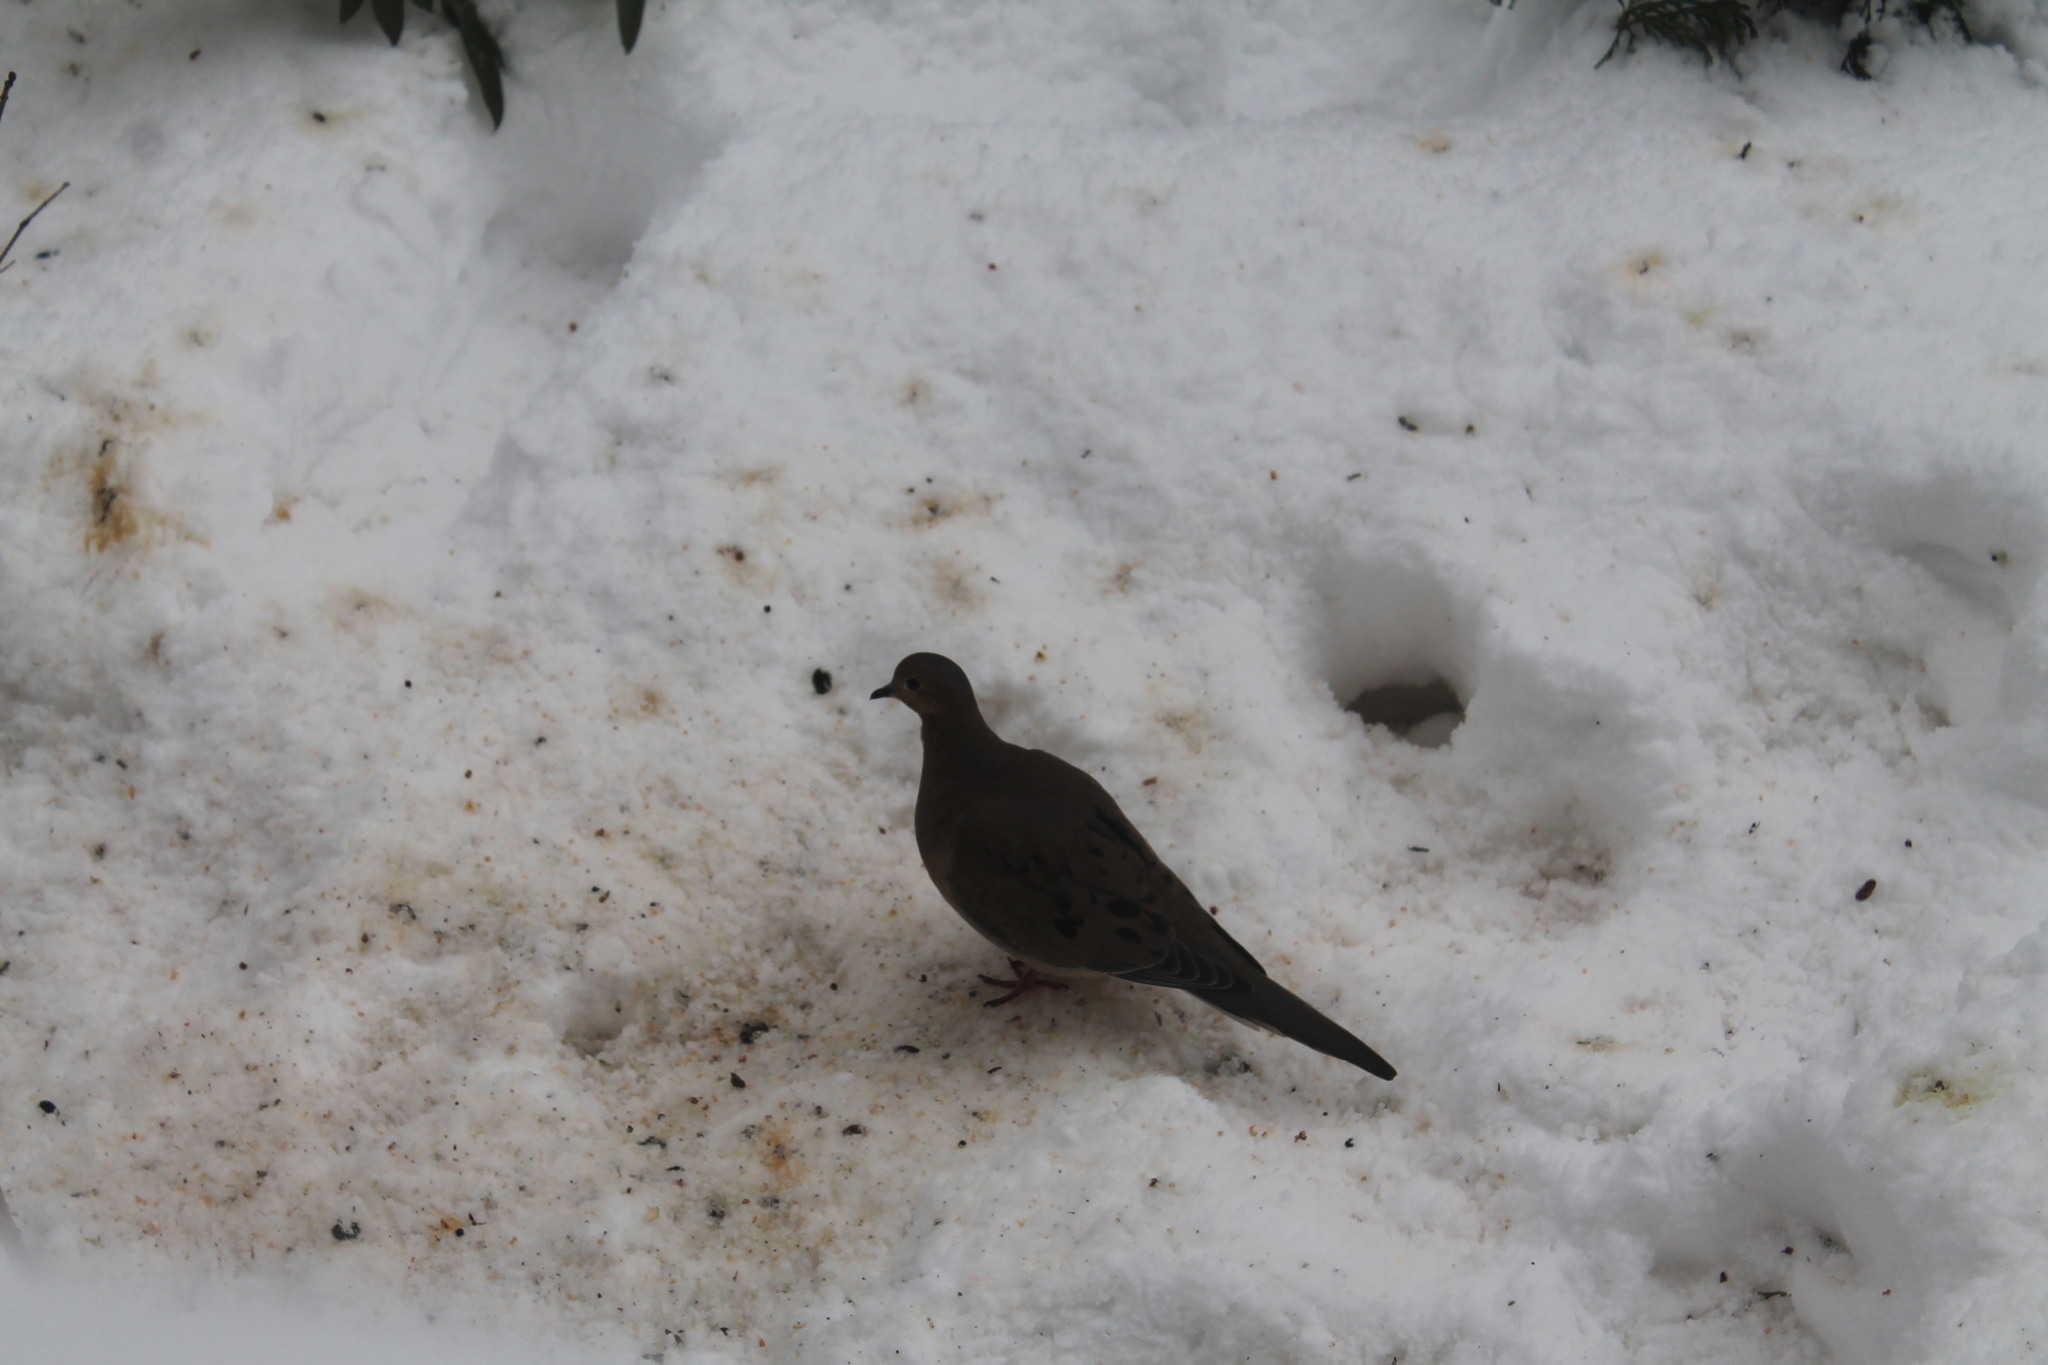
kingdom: Animalia
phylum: Chordata
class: Aves
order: Columbiformes
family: Columbidae
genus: Zenaida
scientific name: Zenaida macroura
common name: Mourning dove
